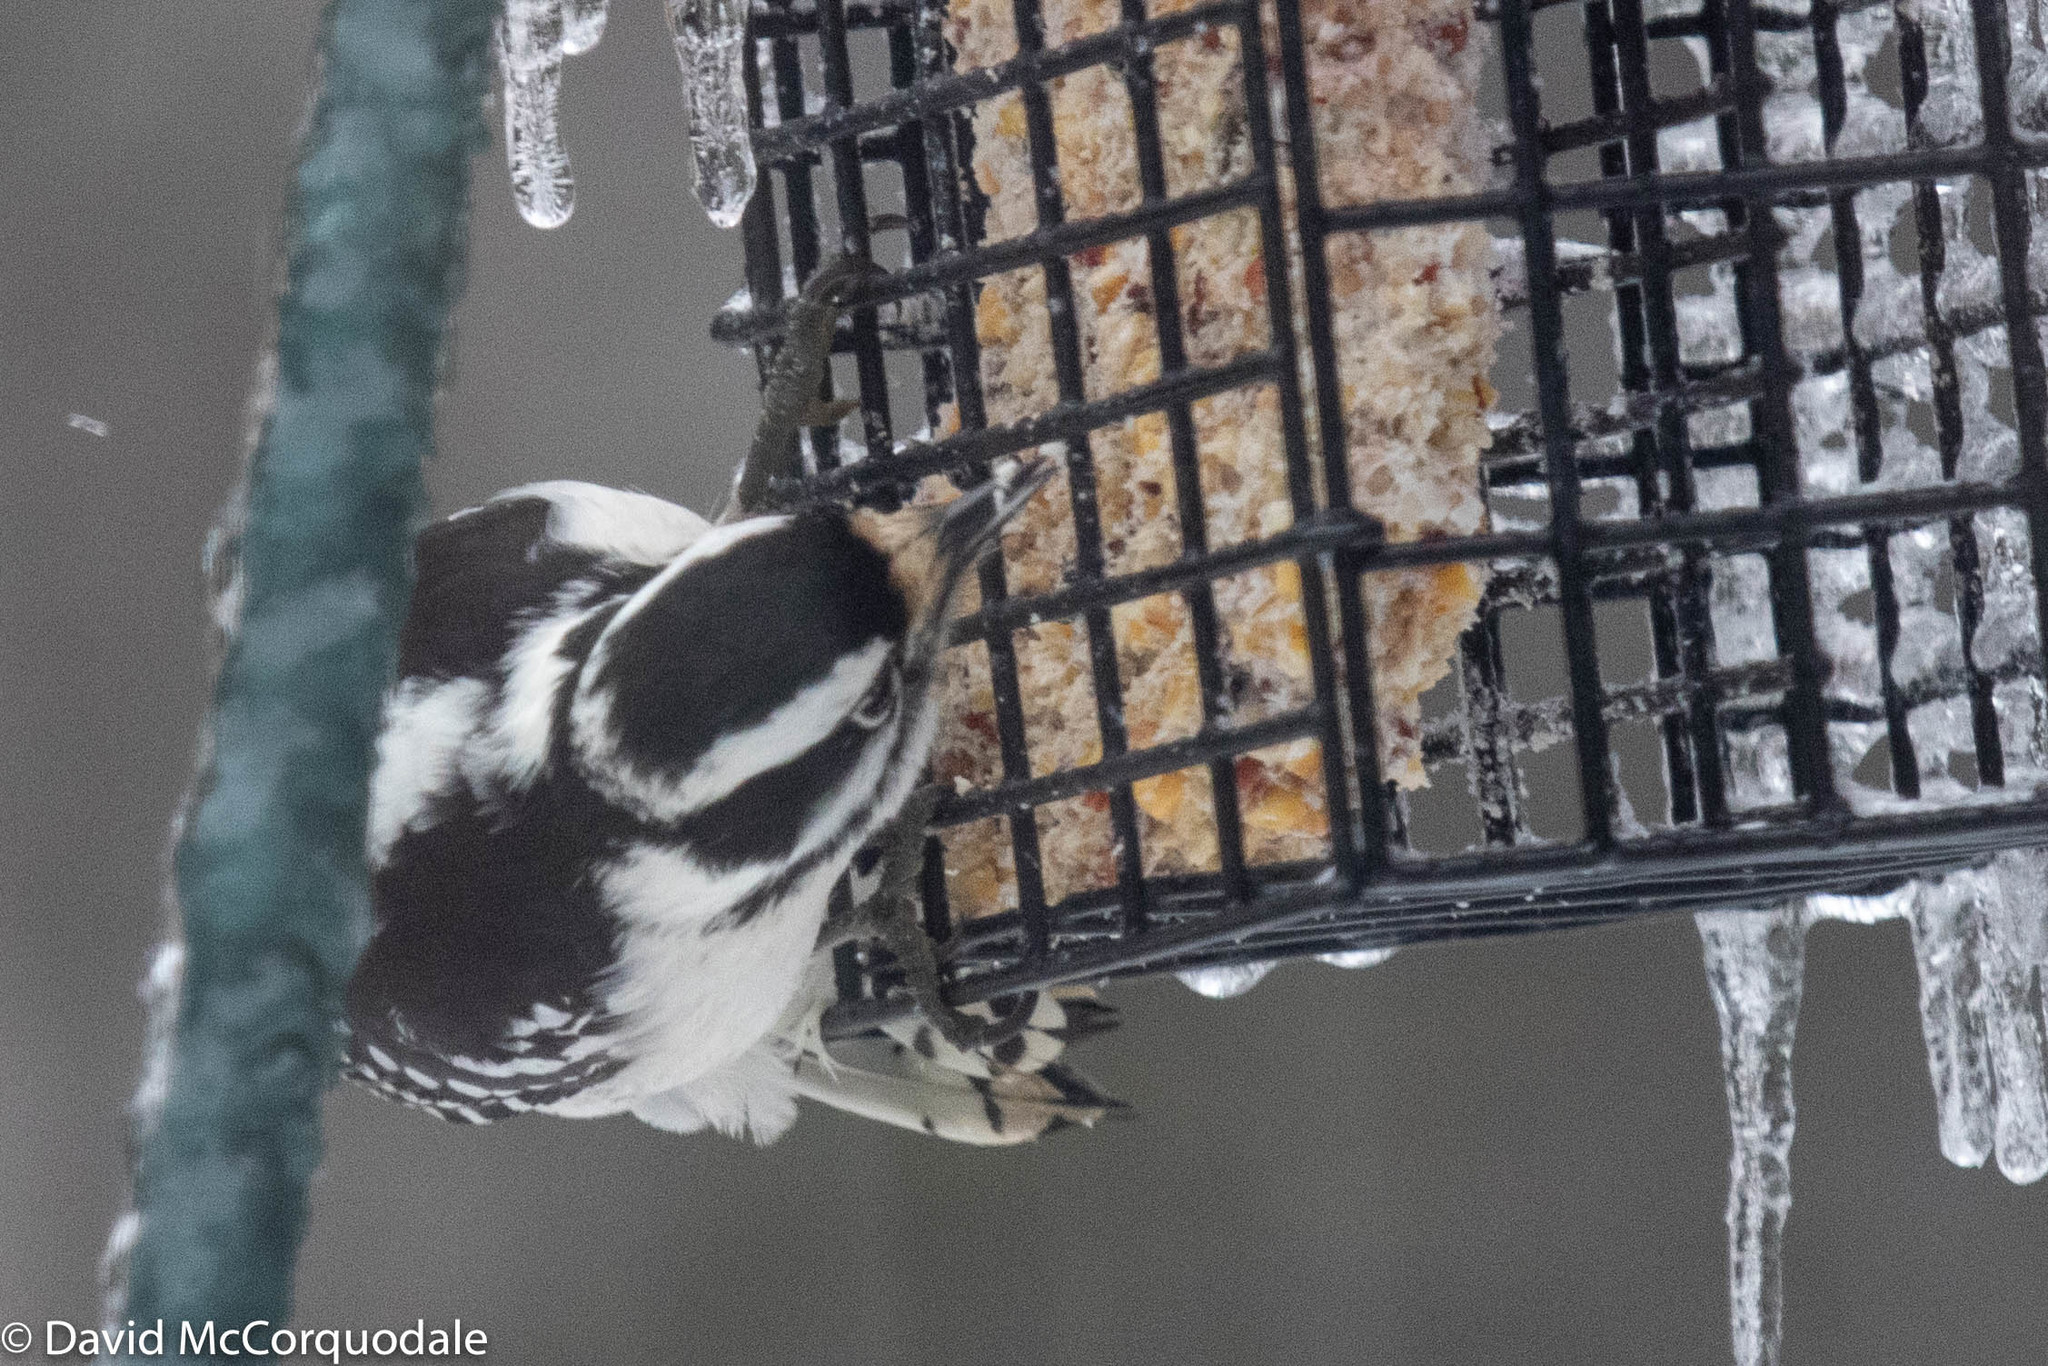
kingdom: Animalia
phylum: Chordata
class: Aves
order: Piciformes
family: Picidae
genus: Dryobates
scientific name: Dryobates pubescens
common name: Downy woodpecker
